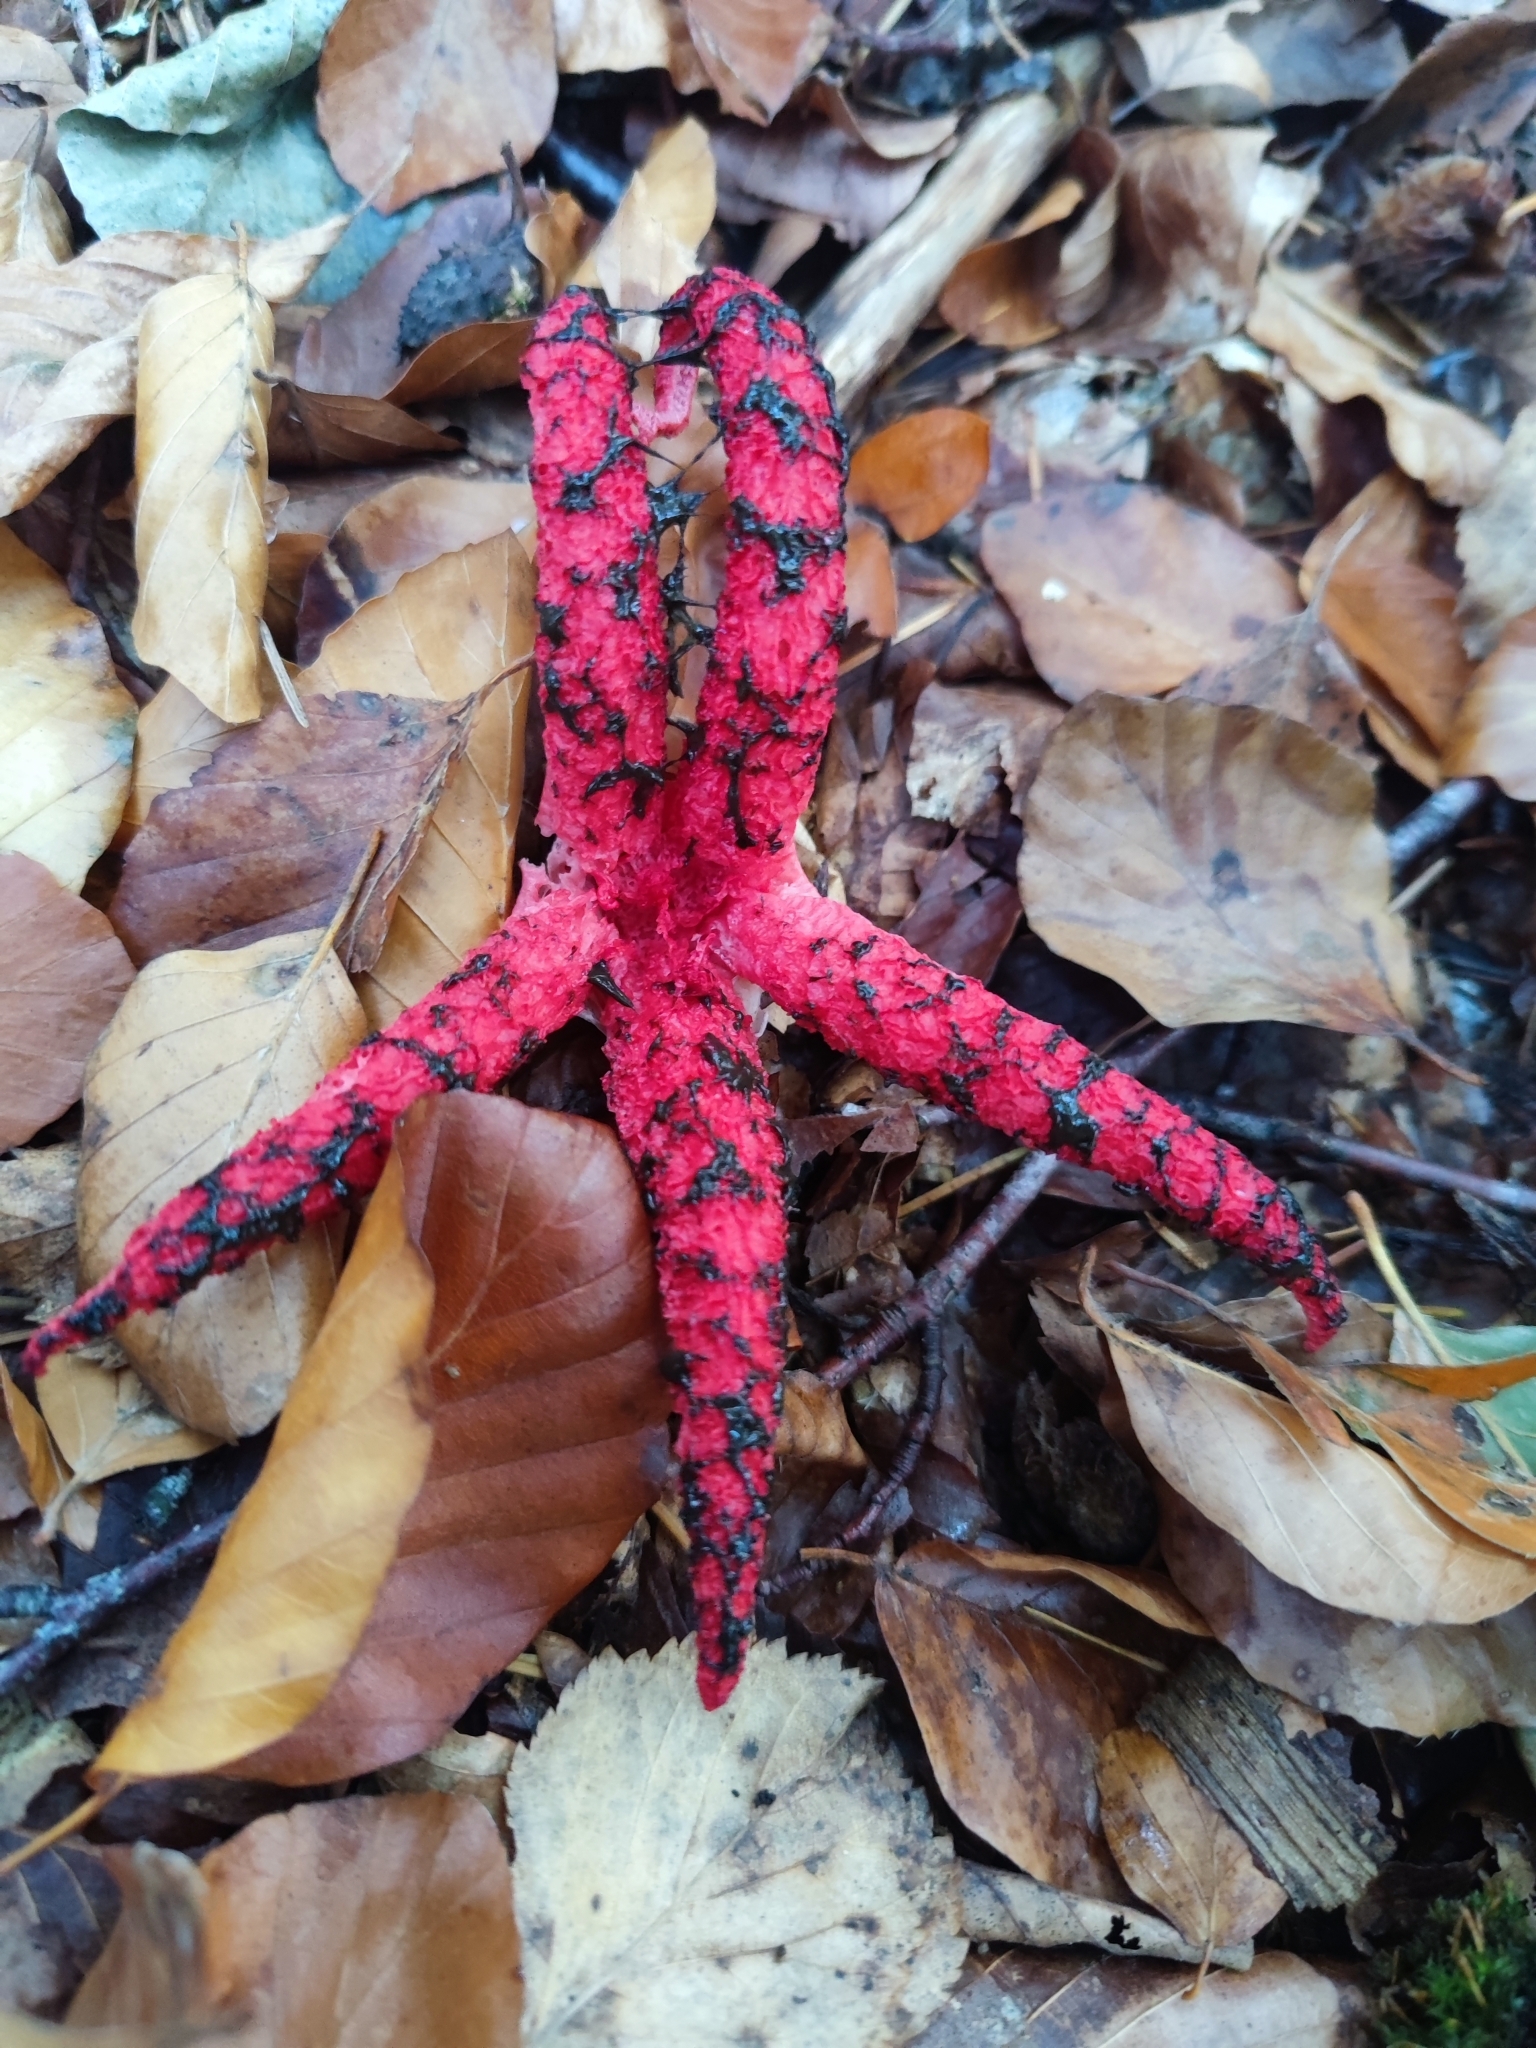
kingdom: Fungi
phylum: Basidiomycota
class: Agaricomycetes
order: Phallales
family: Phallaceae
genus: Clathrus
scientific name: Clathrus archeri
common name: Devil's fingers
